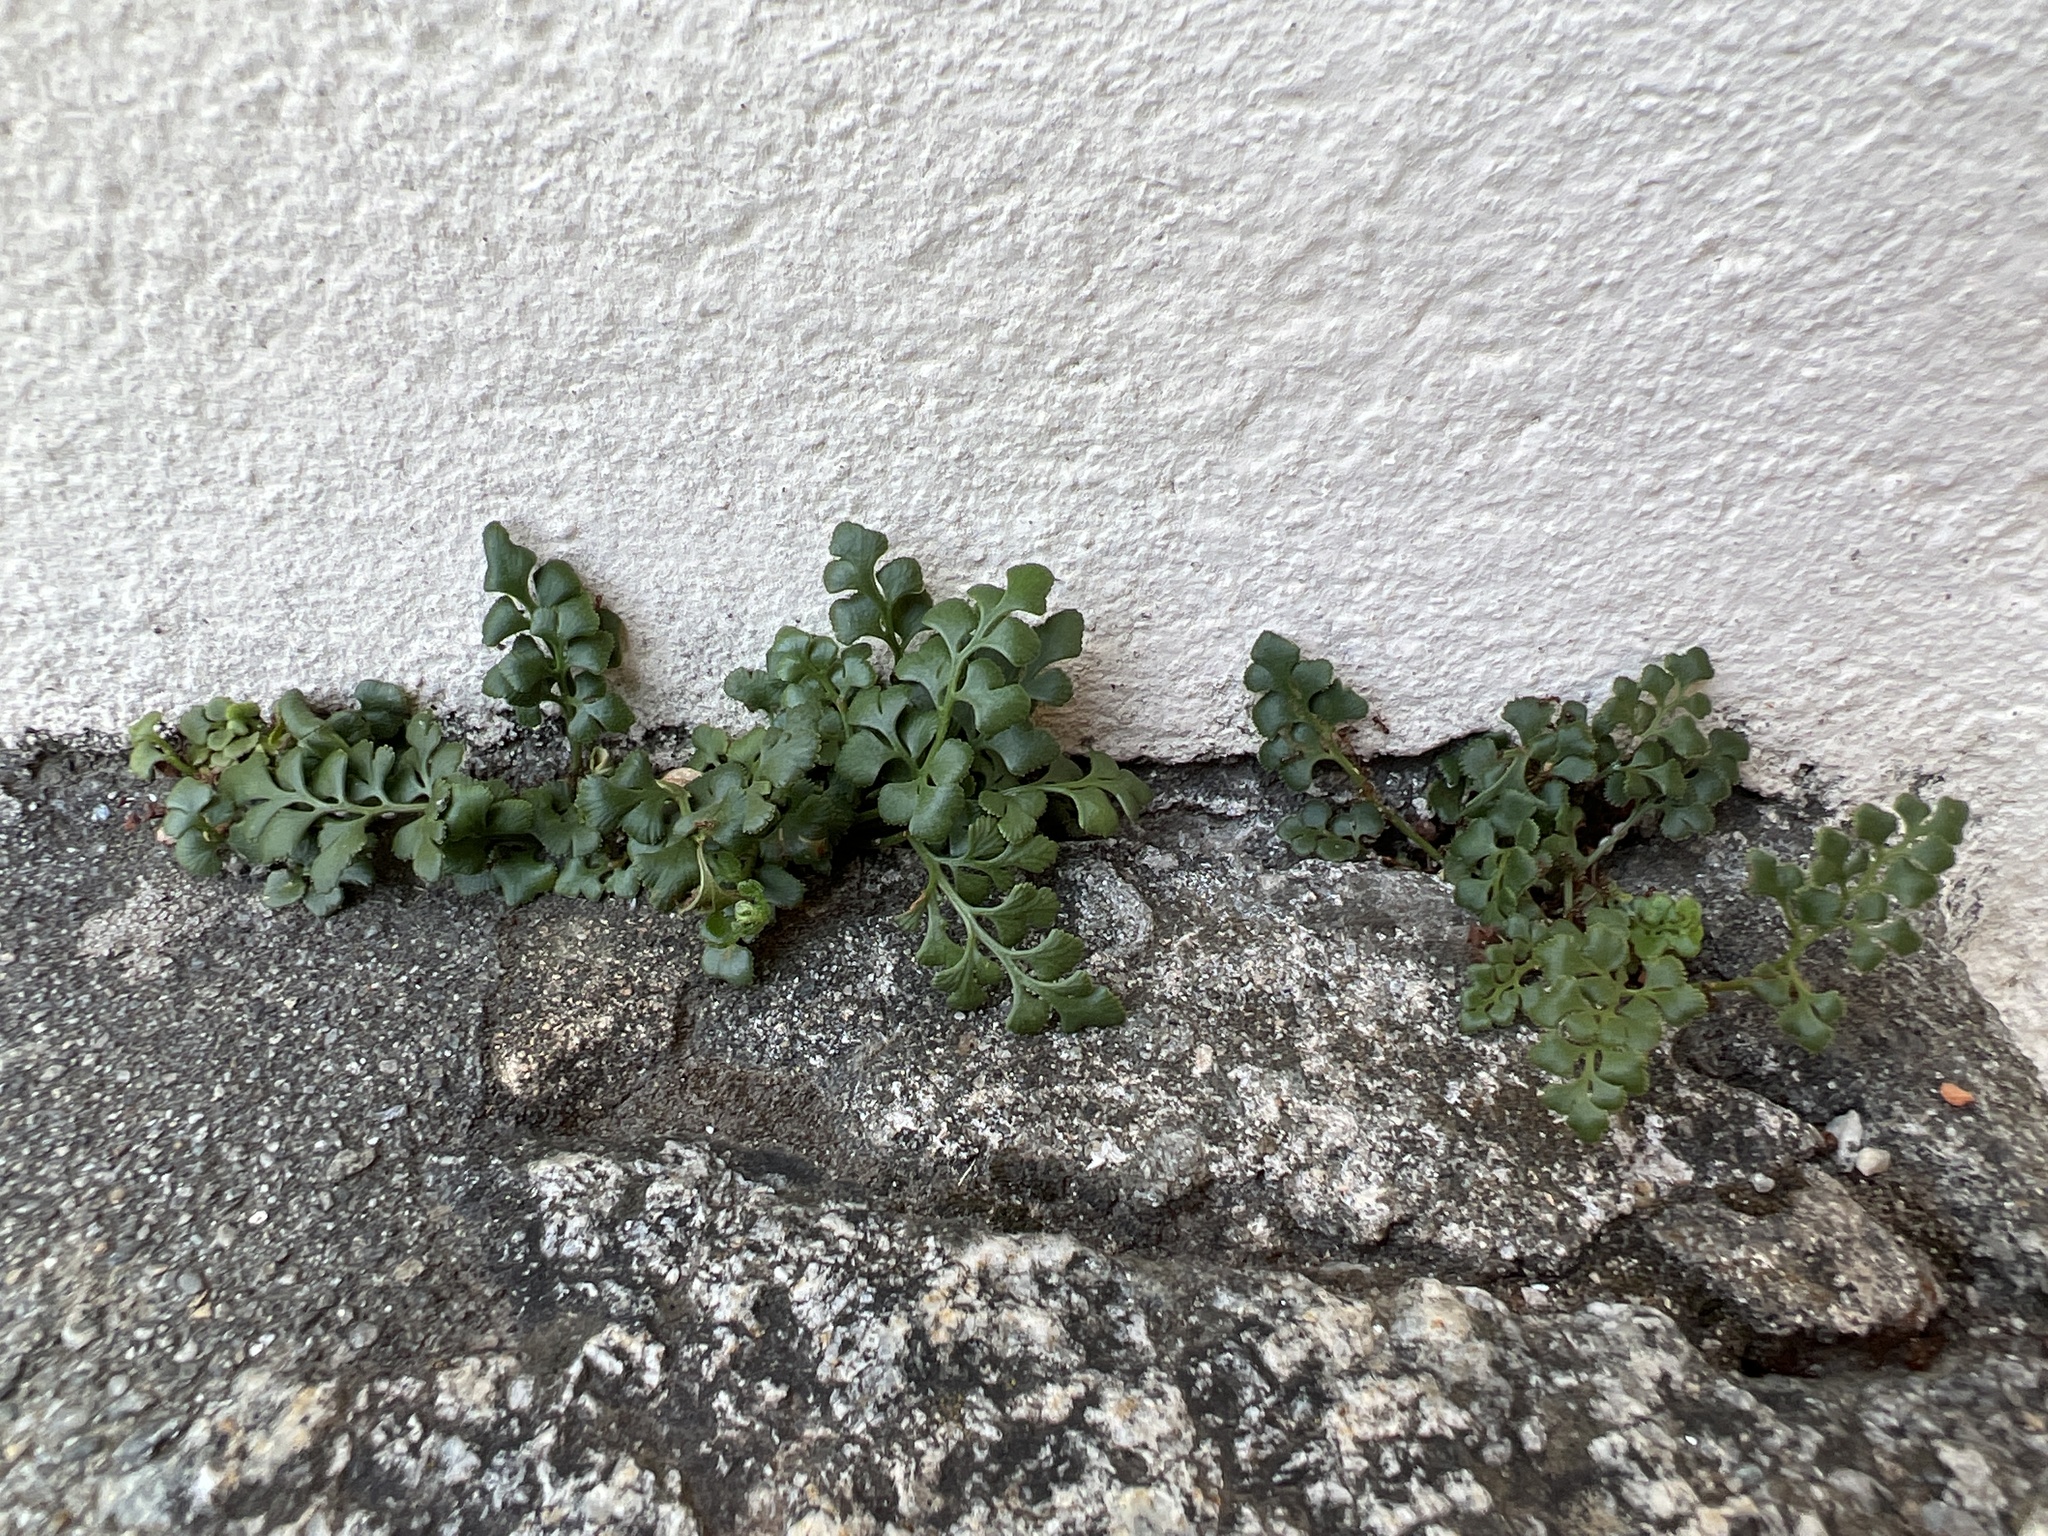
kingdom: Plantae
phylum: Tracheophyta
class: Polypodiopsida
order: Polypodiales
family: Aspleniaceae
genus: Asplenium
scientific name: Asplenium ruta-muraria
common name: Wall-rue
